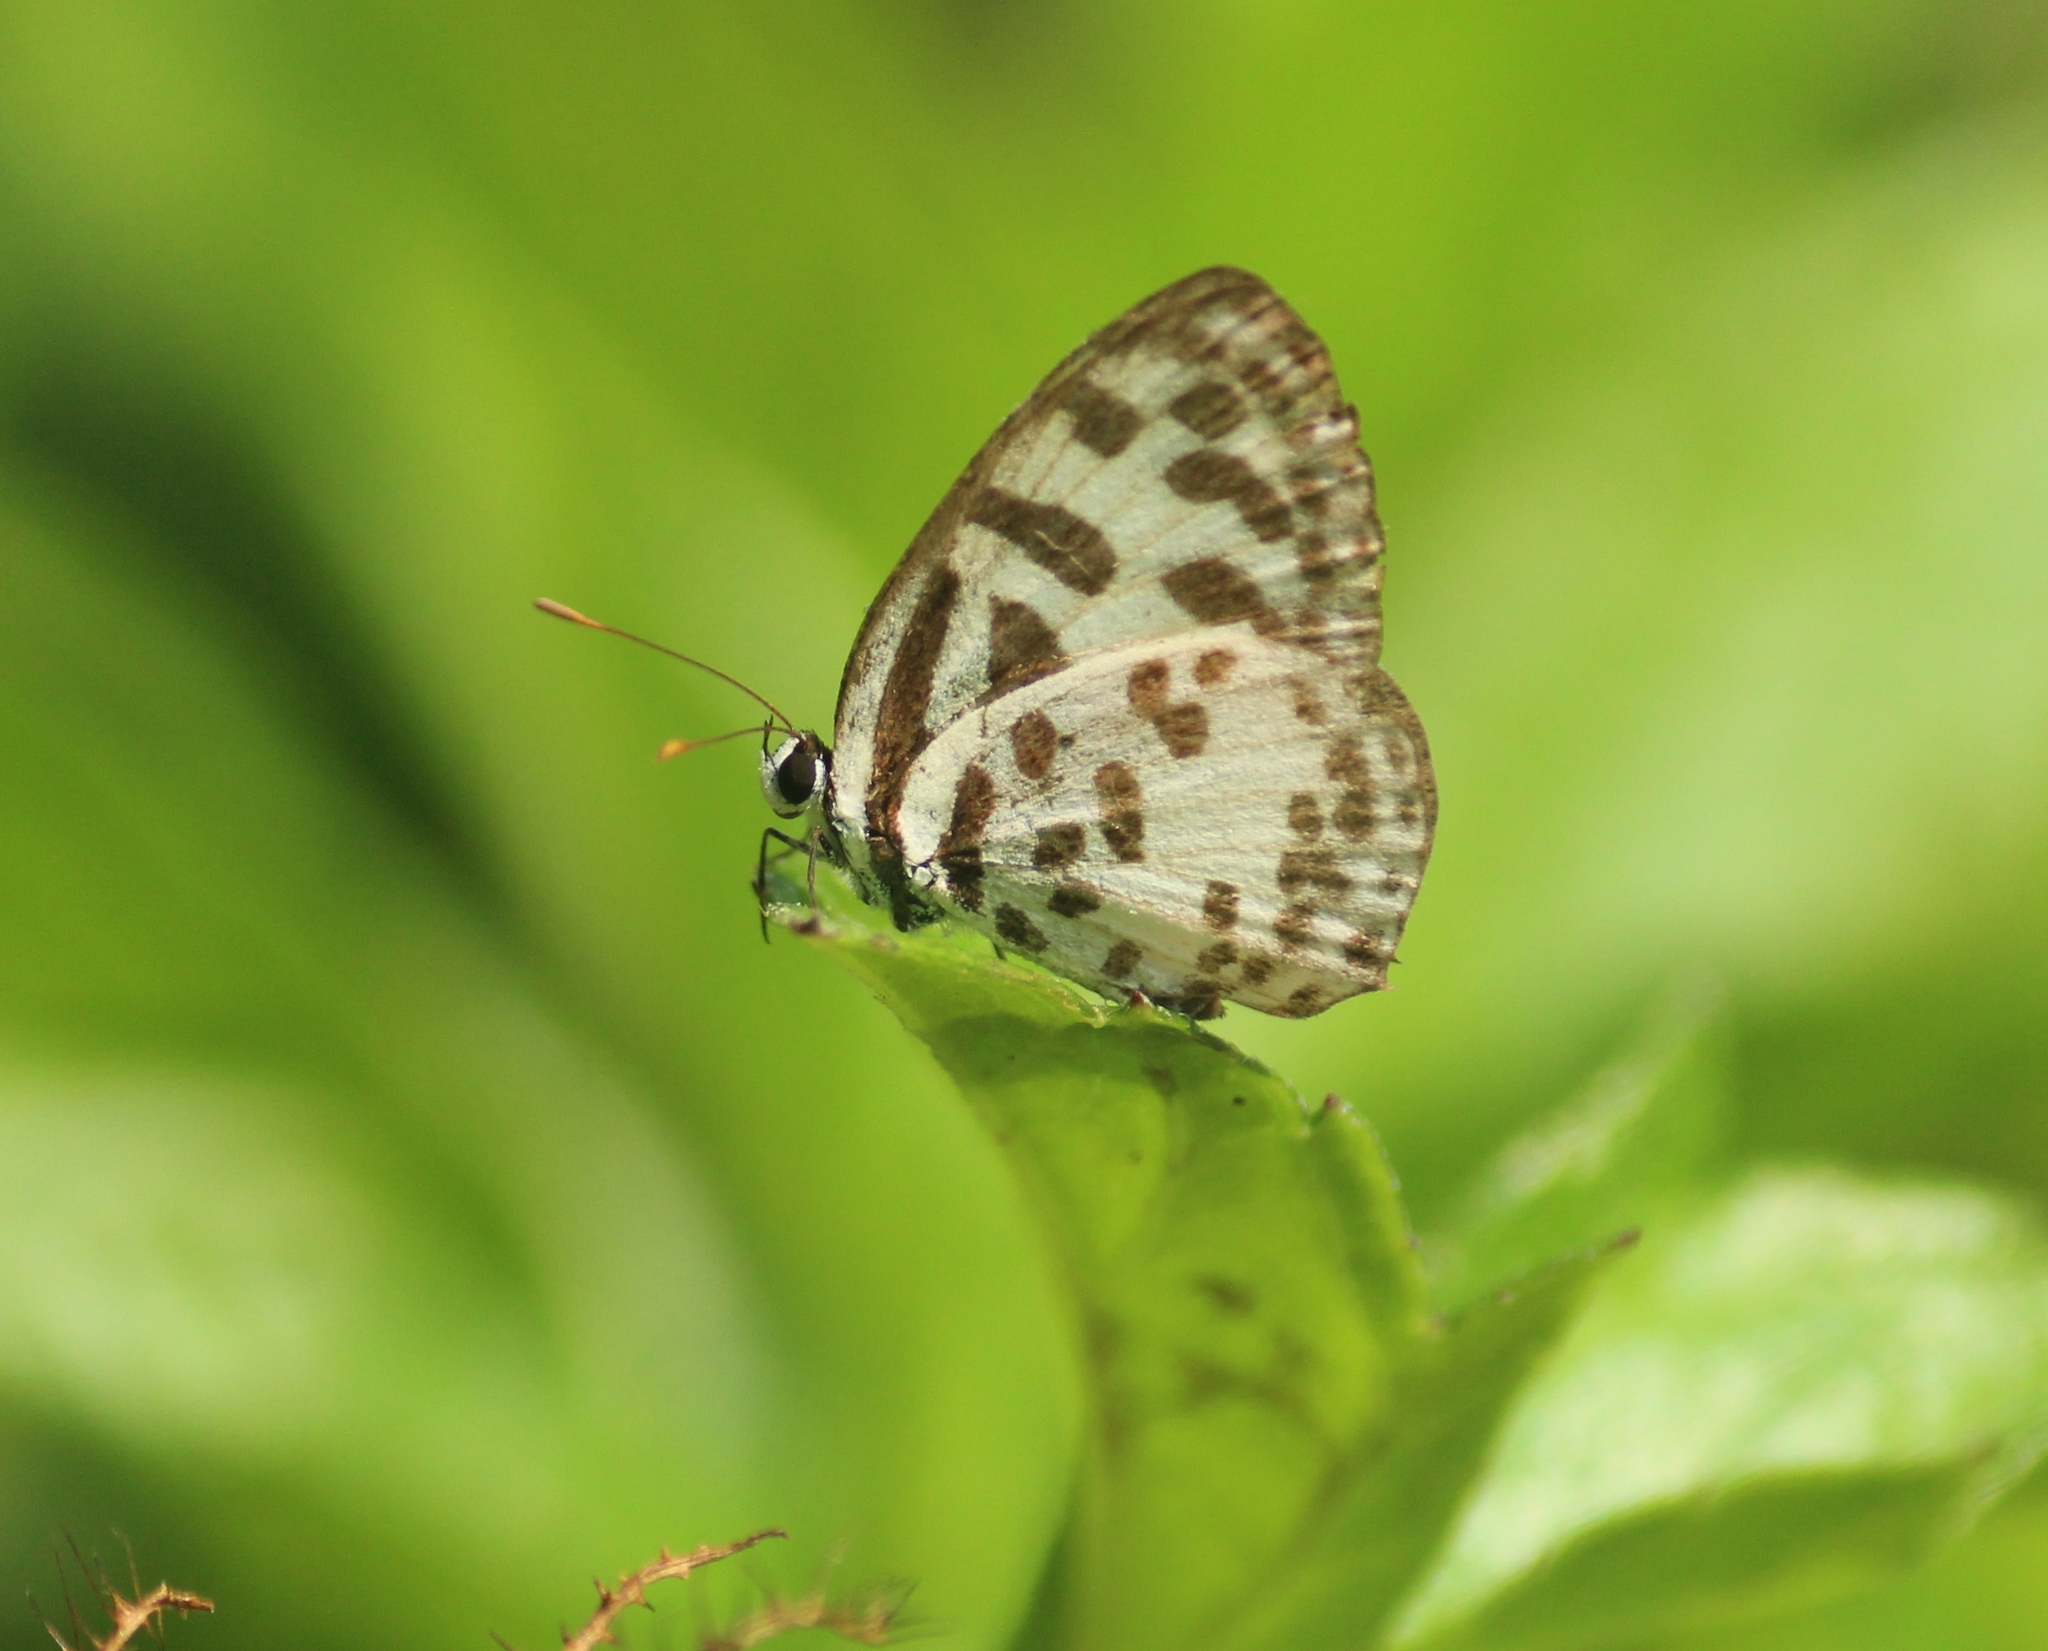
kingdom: Animalia
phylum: Arthropoda
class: Insecta
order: Lepidoptera
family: Lycaenidae
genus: Castalius
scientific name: Castalius rosimon
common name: Common pierrot
